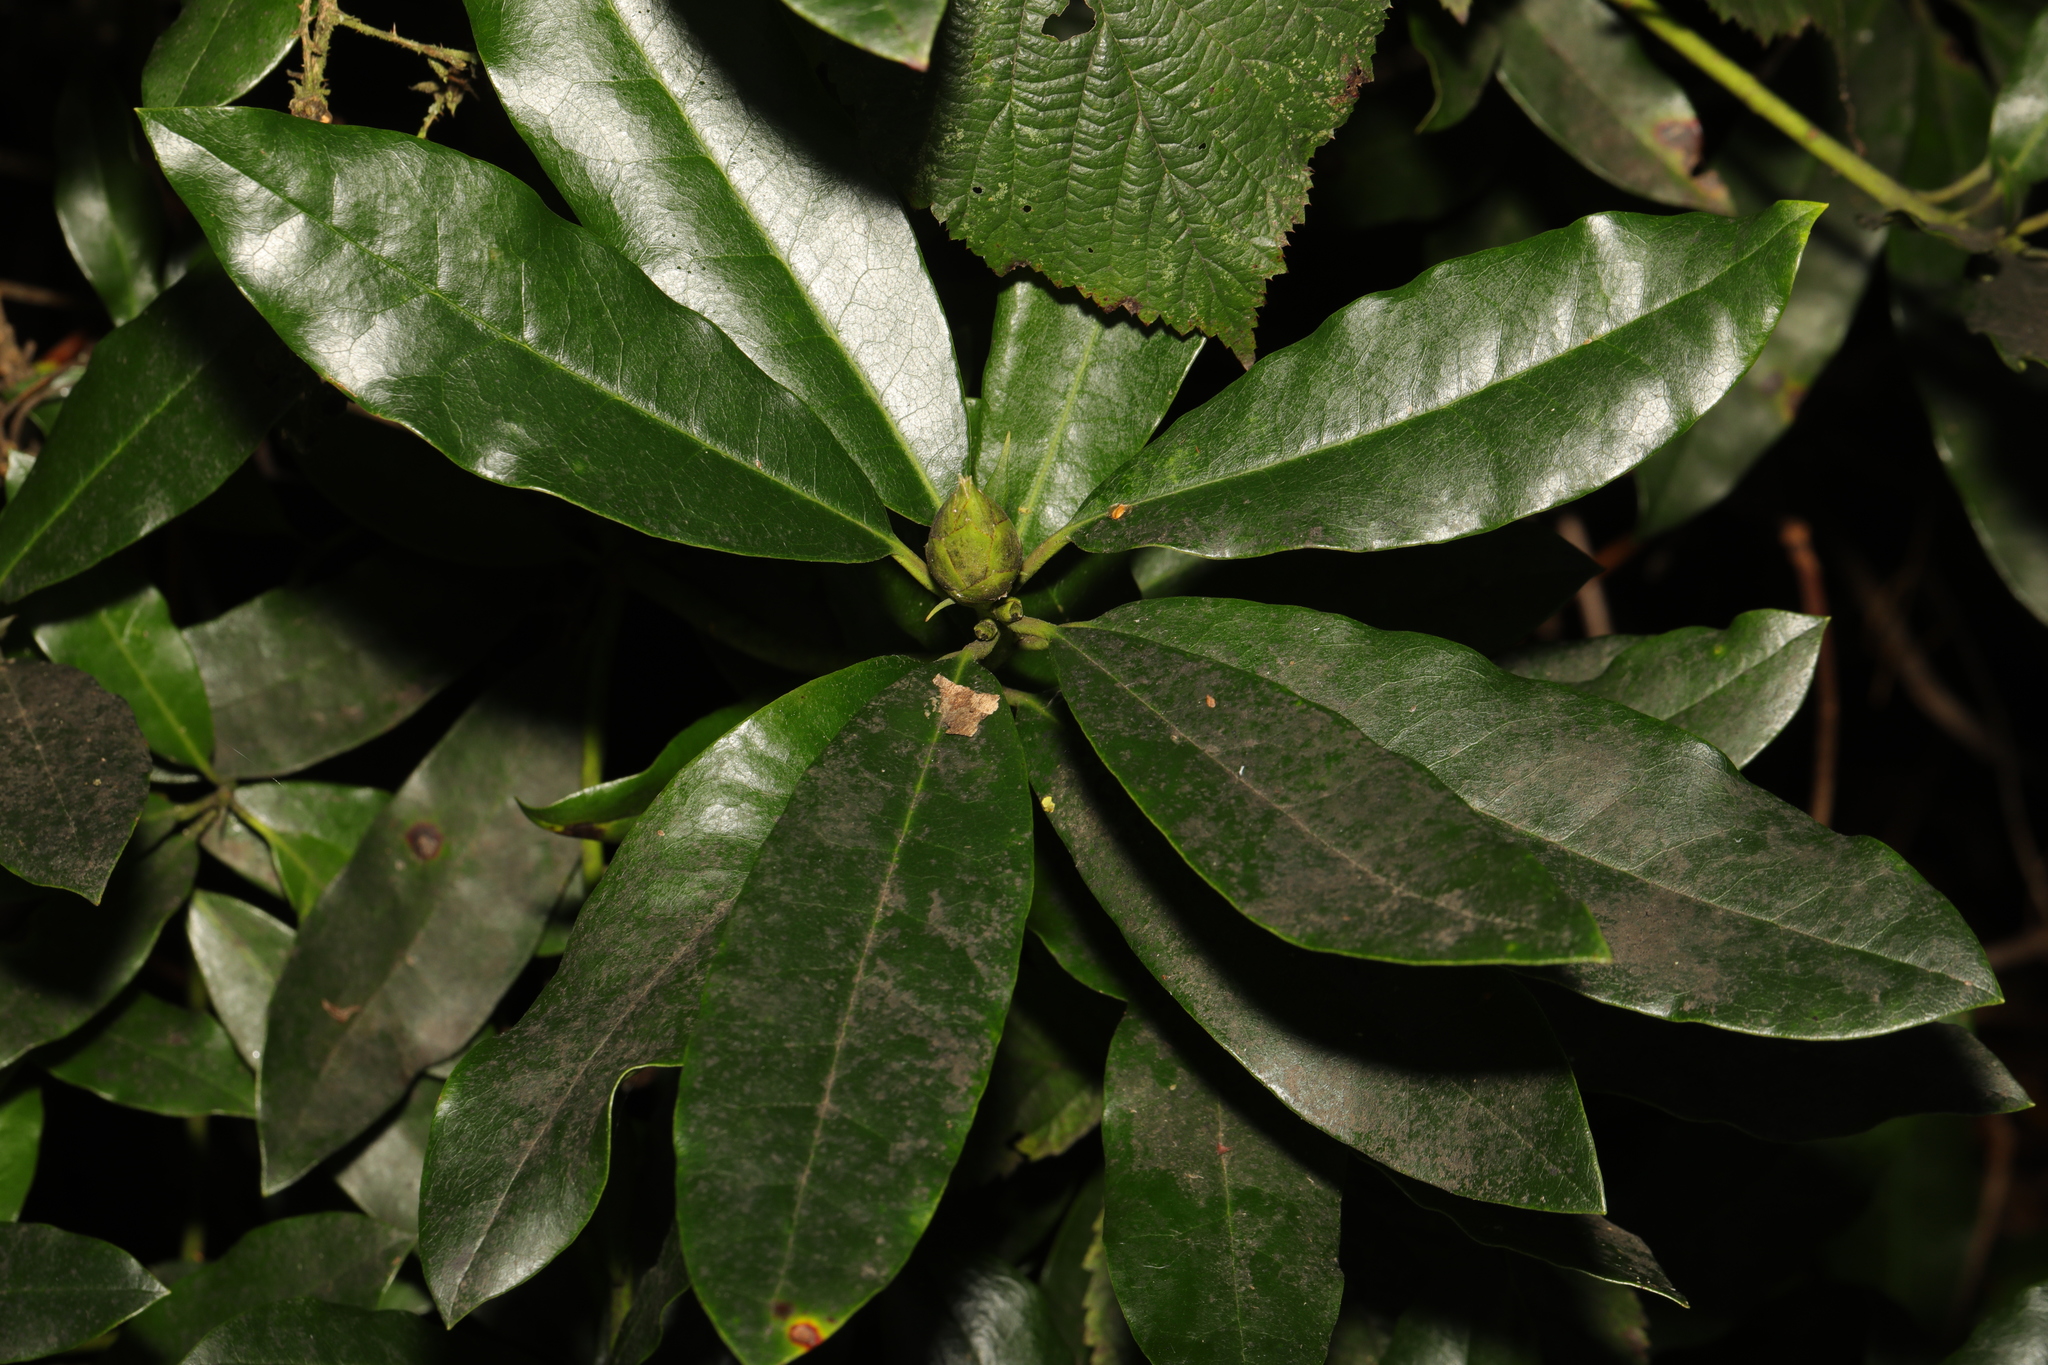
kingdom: Plantae
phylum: Tracheophyta
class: Magnoliopsida
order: Ericales
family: Ericaceae
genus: Rhododendron
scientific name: Rhododendron ponticum
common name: Rhododendron
